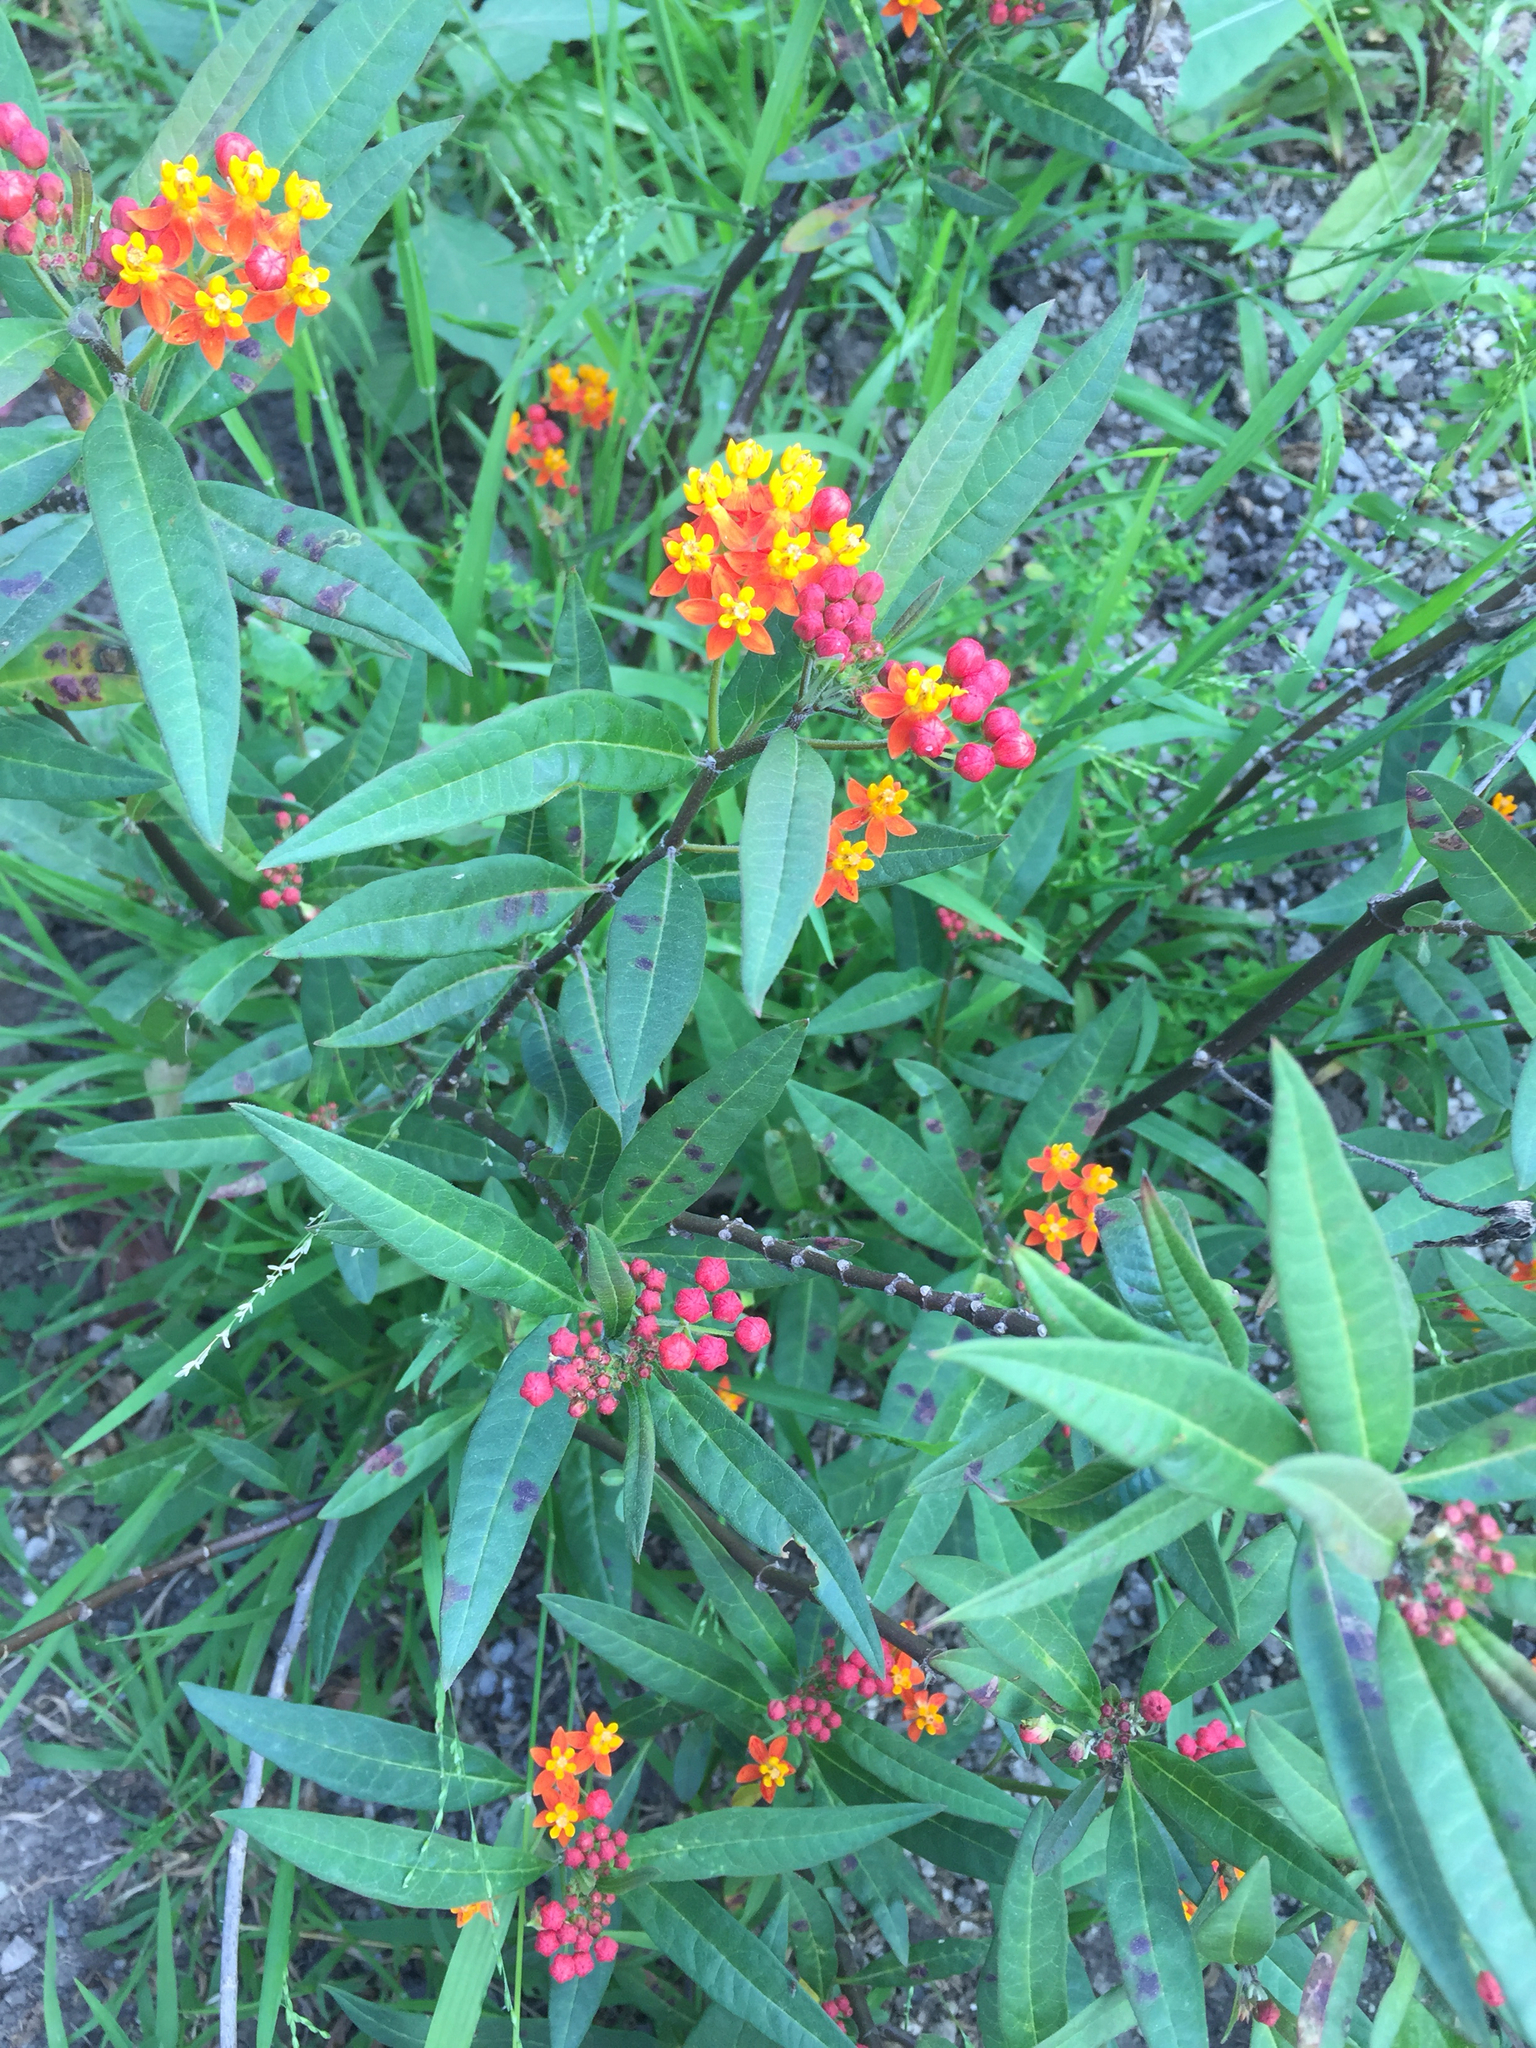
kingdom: Plantae
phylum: Tracheophyta
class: Magnoliopsida
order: Gentianales
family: Apocynaceae
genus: Asclepias
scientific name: Asclepias curassavica
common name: Bloodflower
